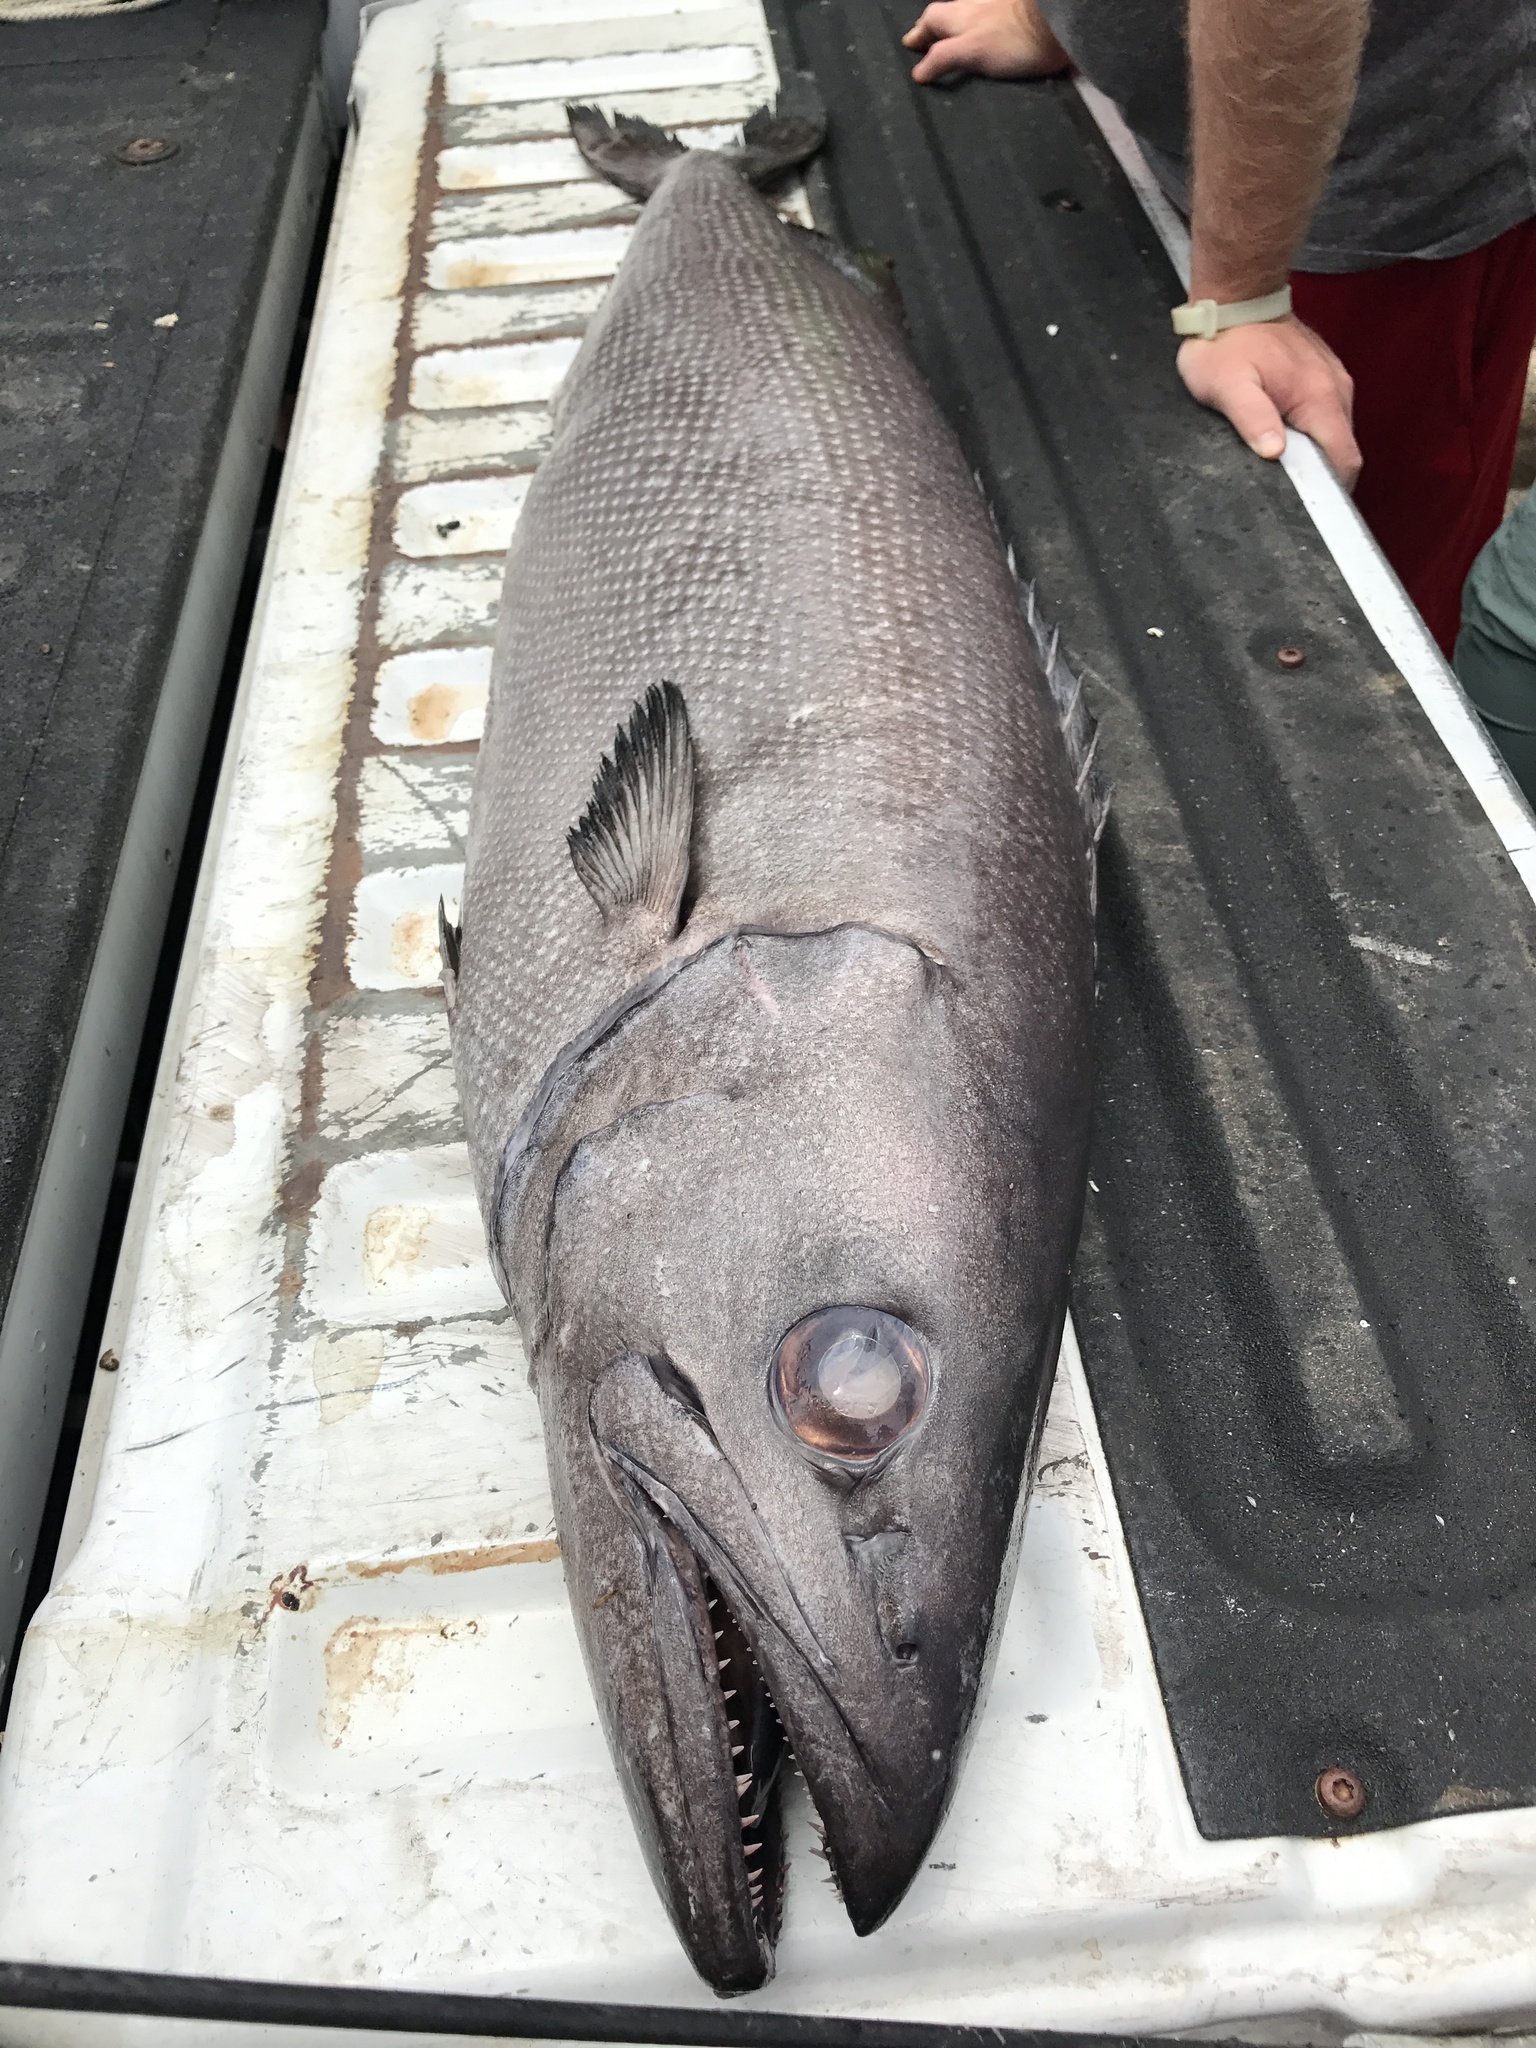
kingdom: Animalia
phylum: Chordata
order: Perciformes
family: Gempylidae
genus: Ruvettus
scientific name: Ruvettus pretiosus
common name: Oilfish
